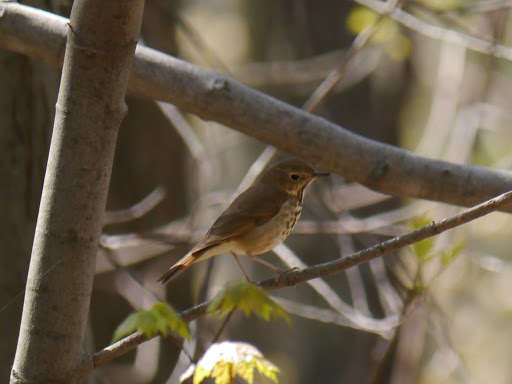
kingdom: Animalia
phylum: Chordata
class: Aves
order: Passeriformes
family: Turdidae
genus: Catharus
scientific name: Catharus ustulatus
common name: Swainson's thrush
